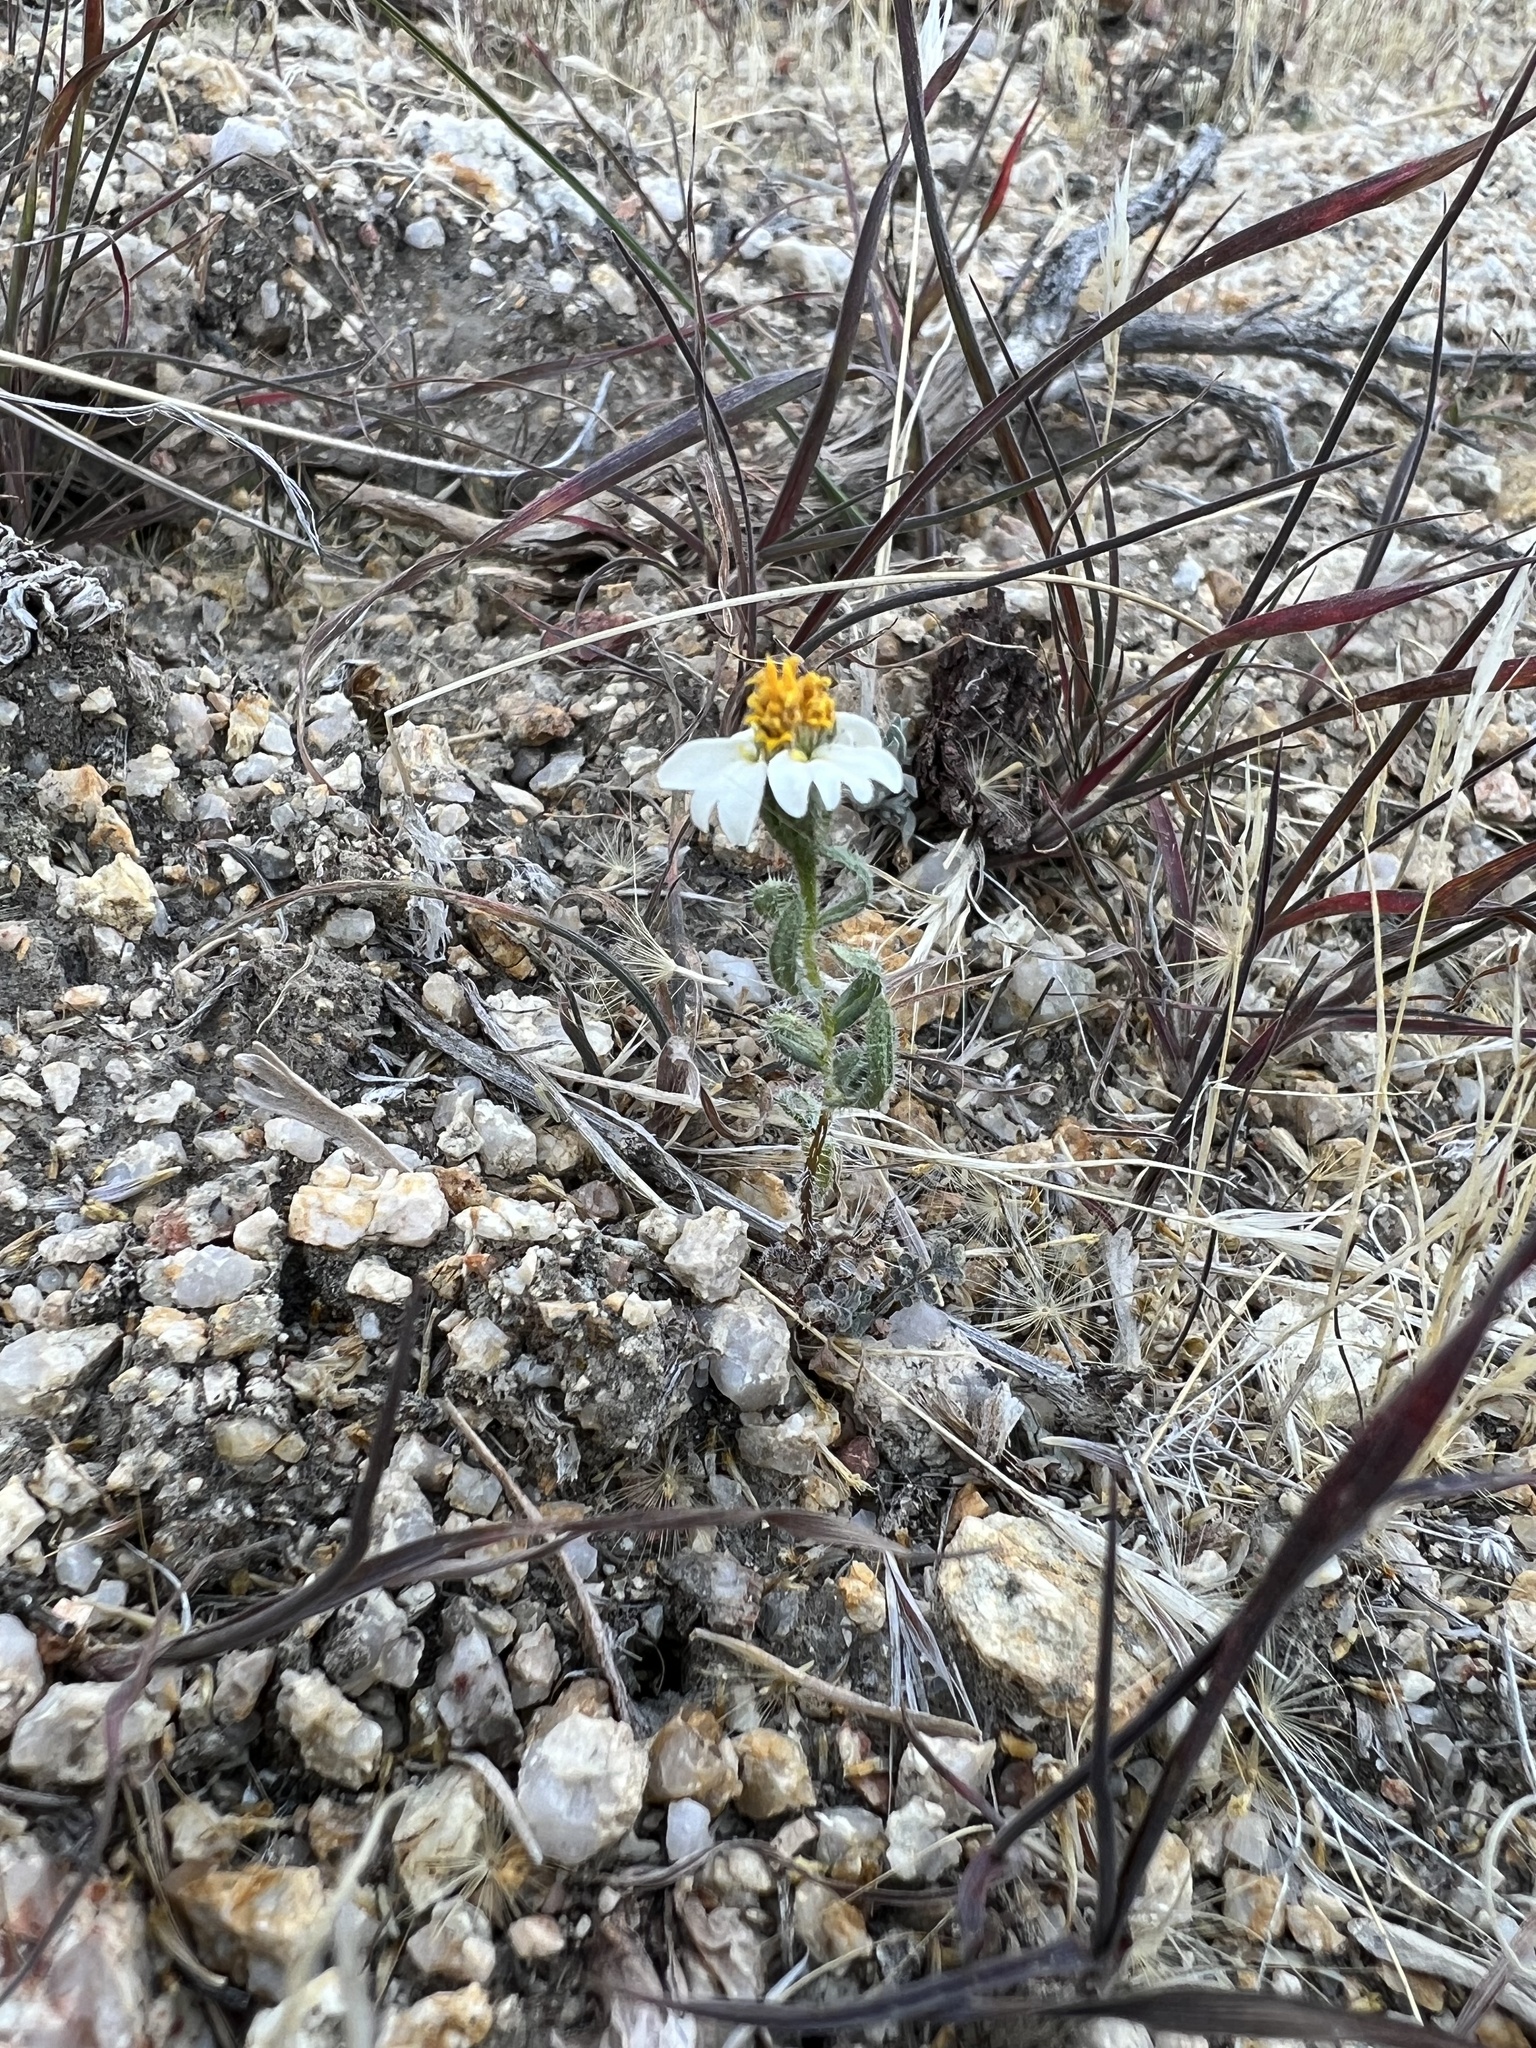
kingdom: Plantae
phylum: Tracheophyta
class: Magnoliopsida
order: Asterales
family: Asteraceae
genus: Layia
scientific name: Layia glandulosa
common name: White layia
